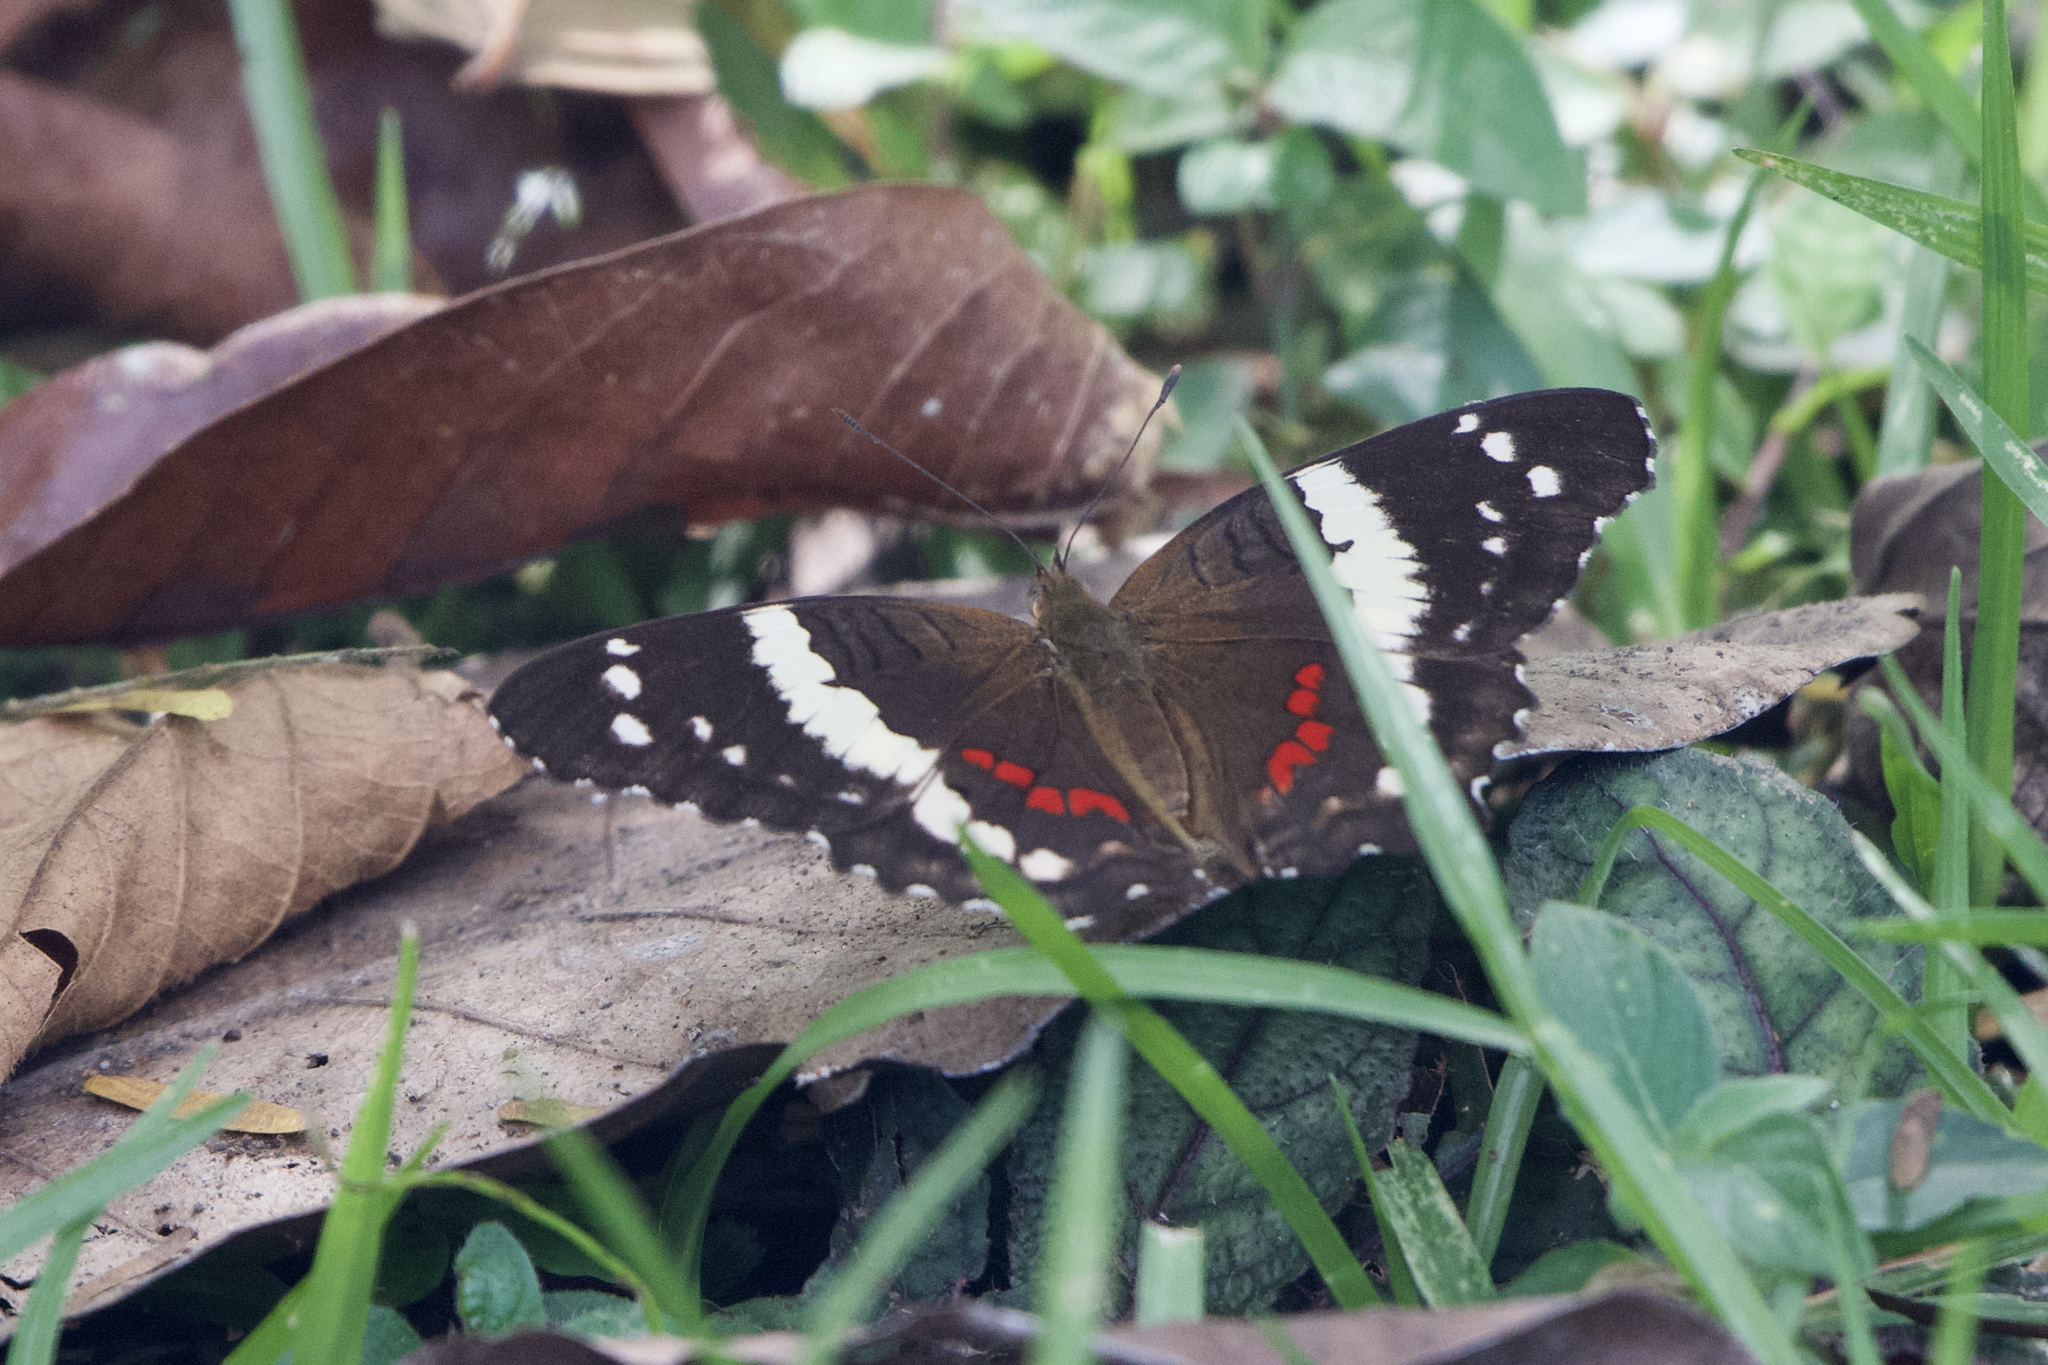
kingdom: Animalia
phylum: Arthropoda
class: Insecta
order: Lepidoptera
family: Nymphalidae
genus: Anartia
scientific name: Anartia fatima
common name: Banded peacock
